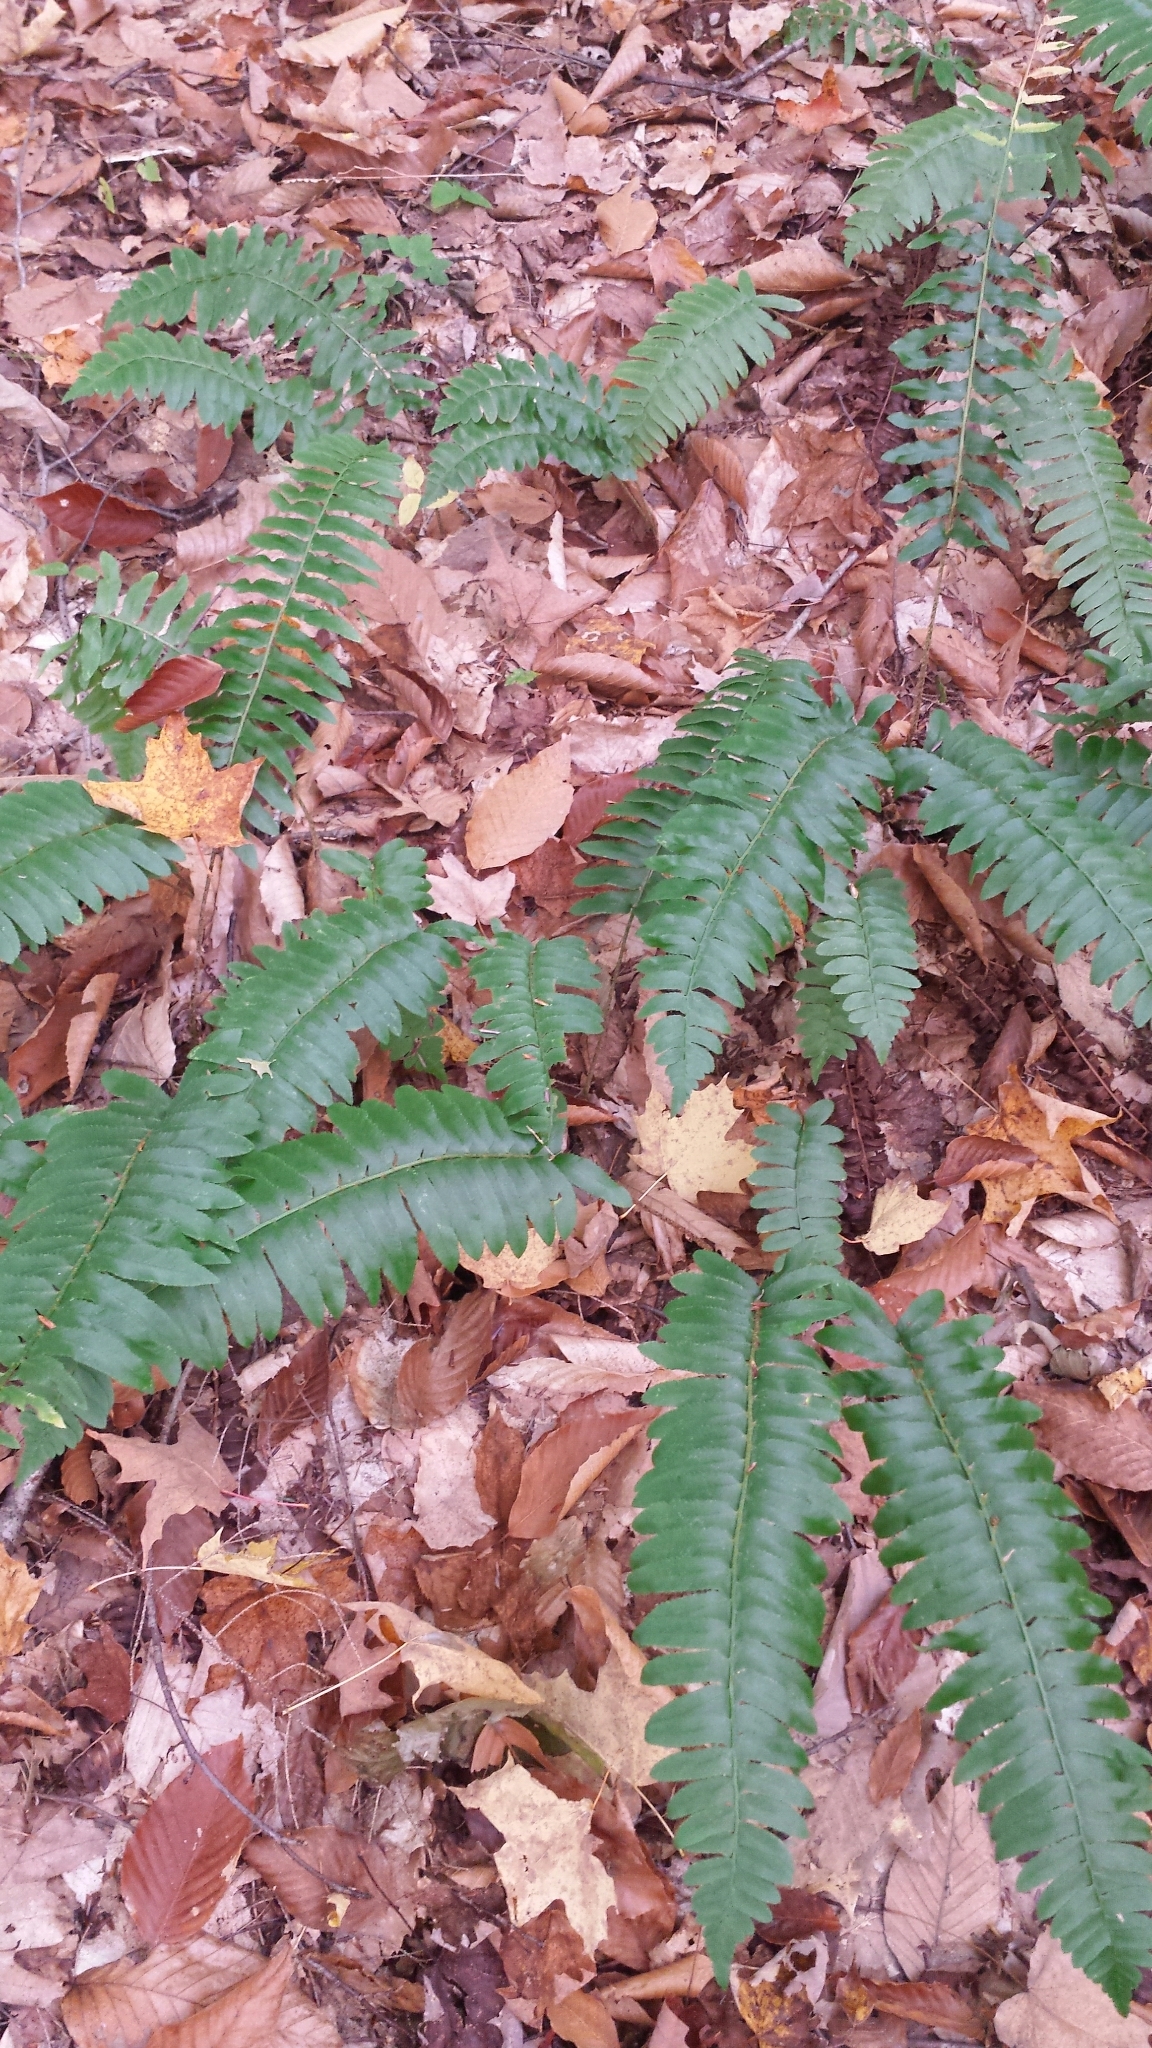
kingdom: Plantae
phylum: Tracheophyta
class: Polypodiopsida
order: Polypodiales
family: Dryopteridaceae
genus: Polystichum
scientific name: Polystichum acrostichoides
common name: Christmas fern
